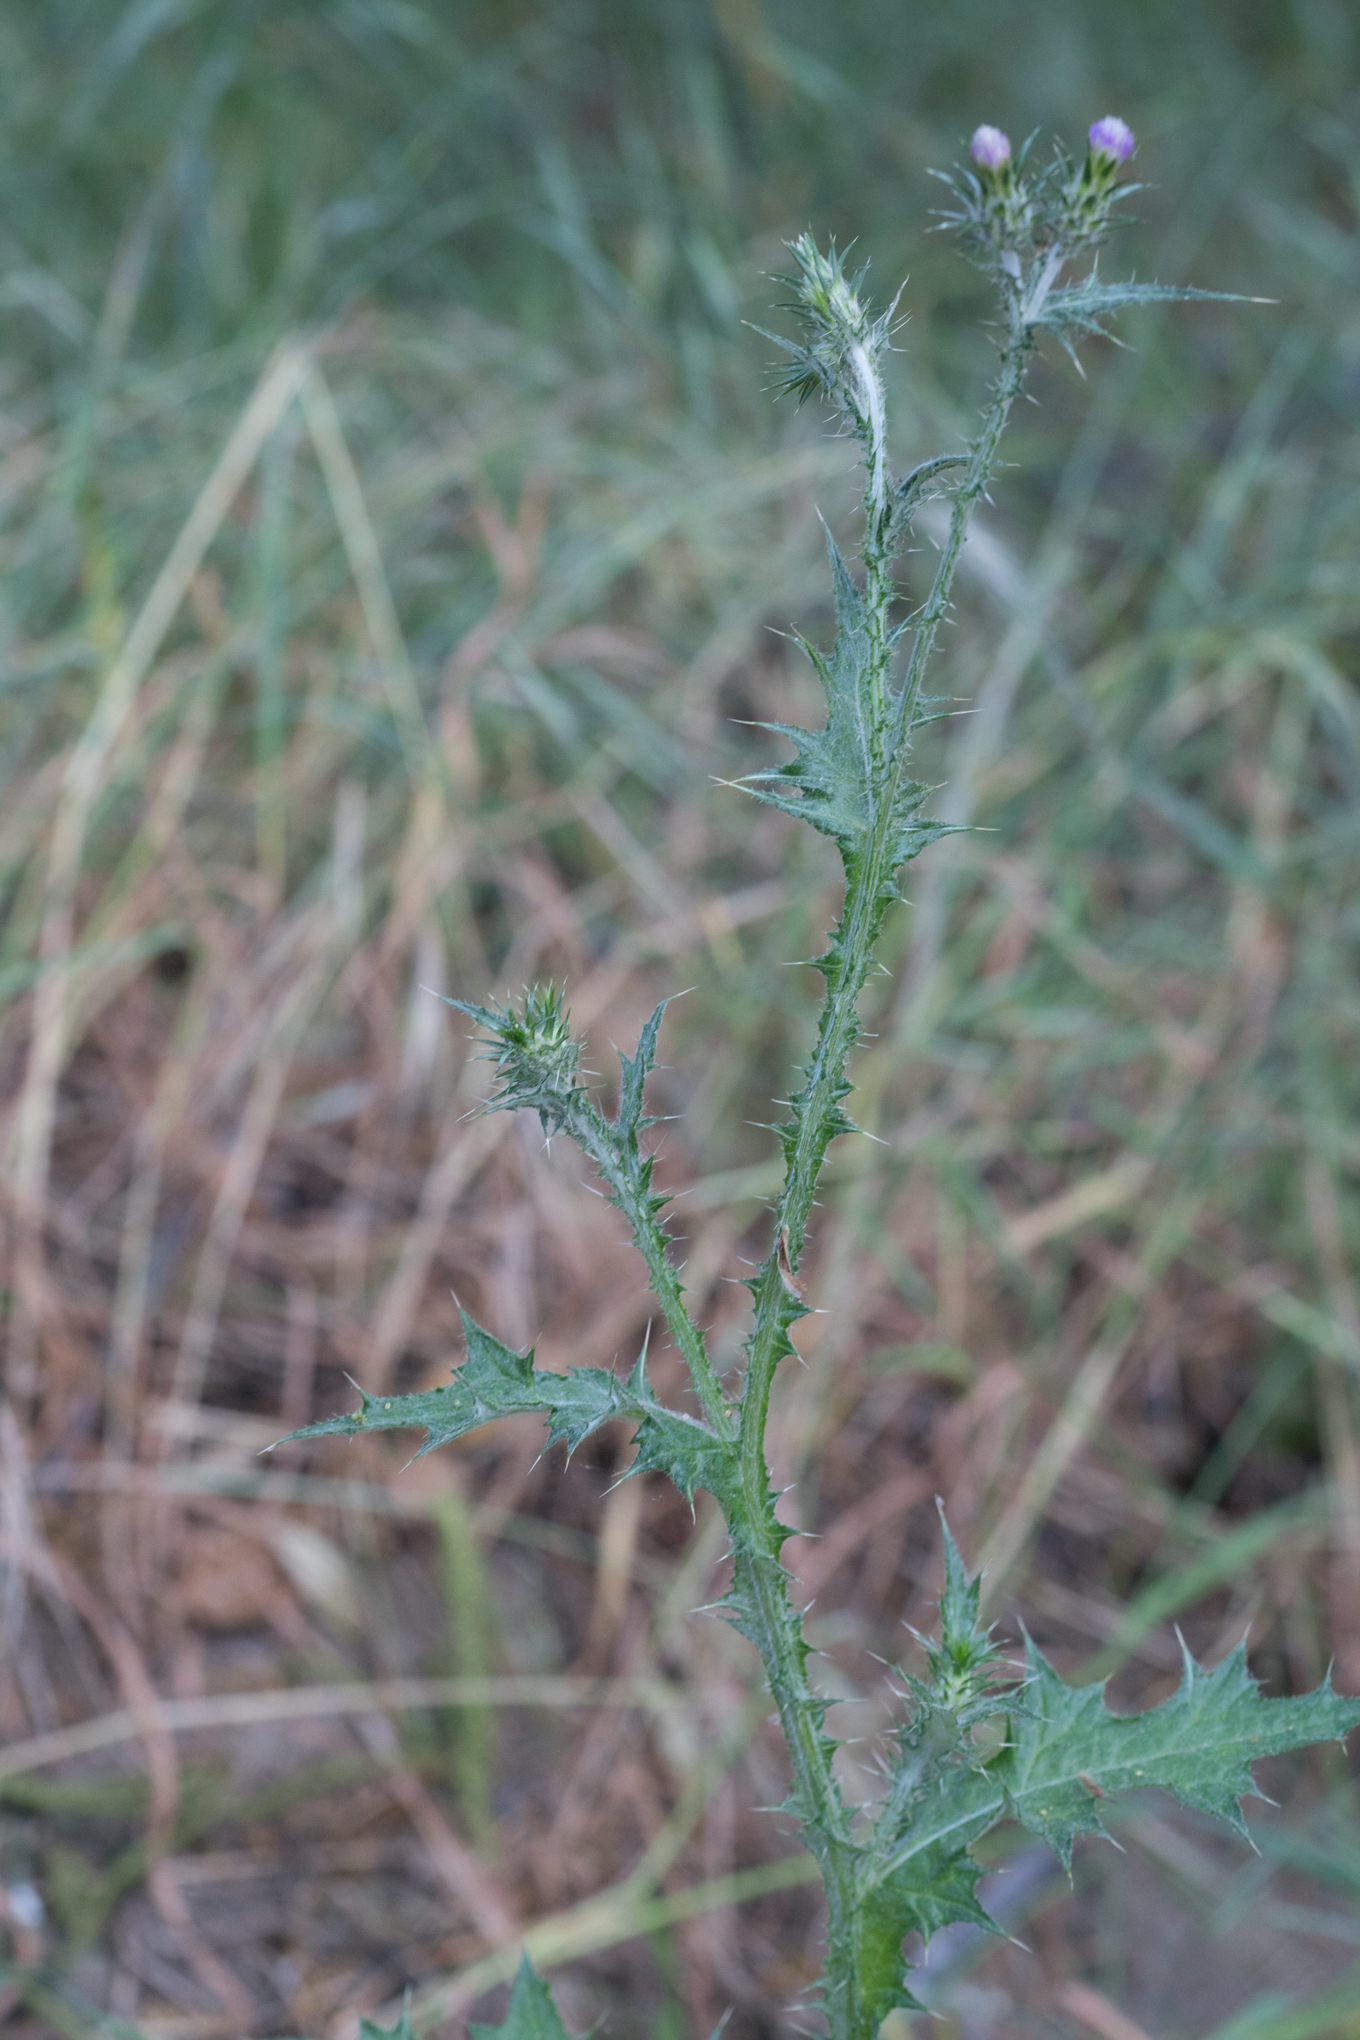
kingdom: Plantae
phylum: Tracheophyta
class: Magnoliopsida
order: Asterales
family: Asteraceae
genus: Carduus
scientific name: Carduus pycnocephalus
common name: Plymouth thistle
